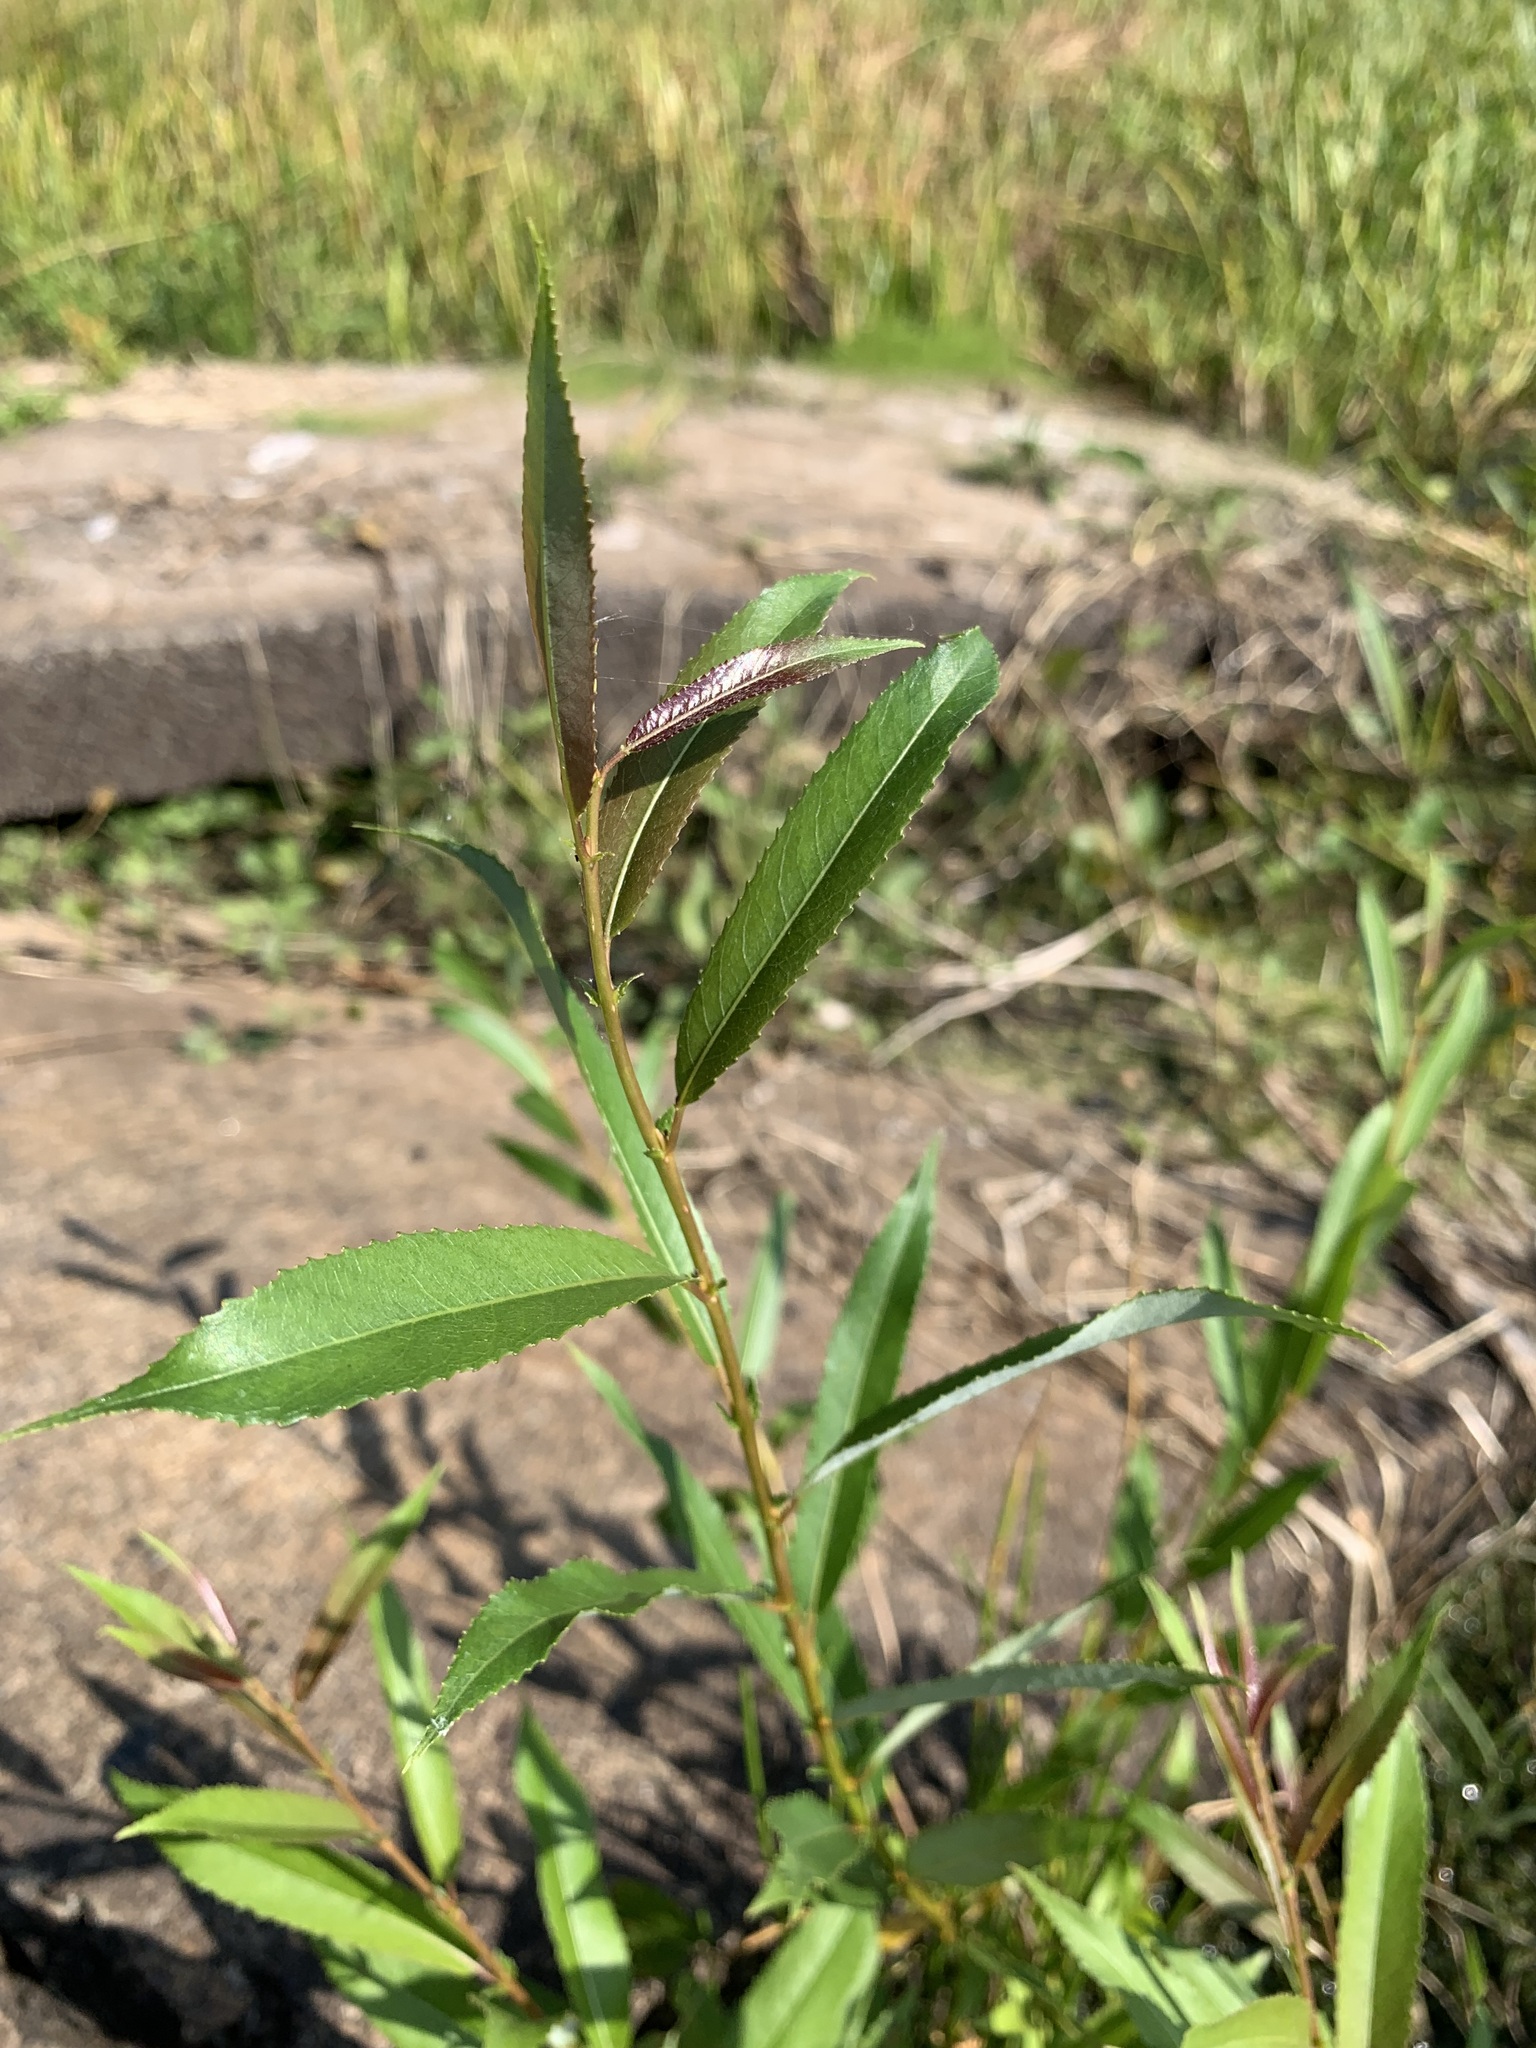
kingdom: Plantae
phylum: Tracheophyta
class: Magnoliopsida
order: Malpighiales
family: Salicaceae
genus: Salix
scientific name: Salix triandra
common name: Almond willow
